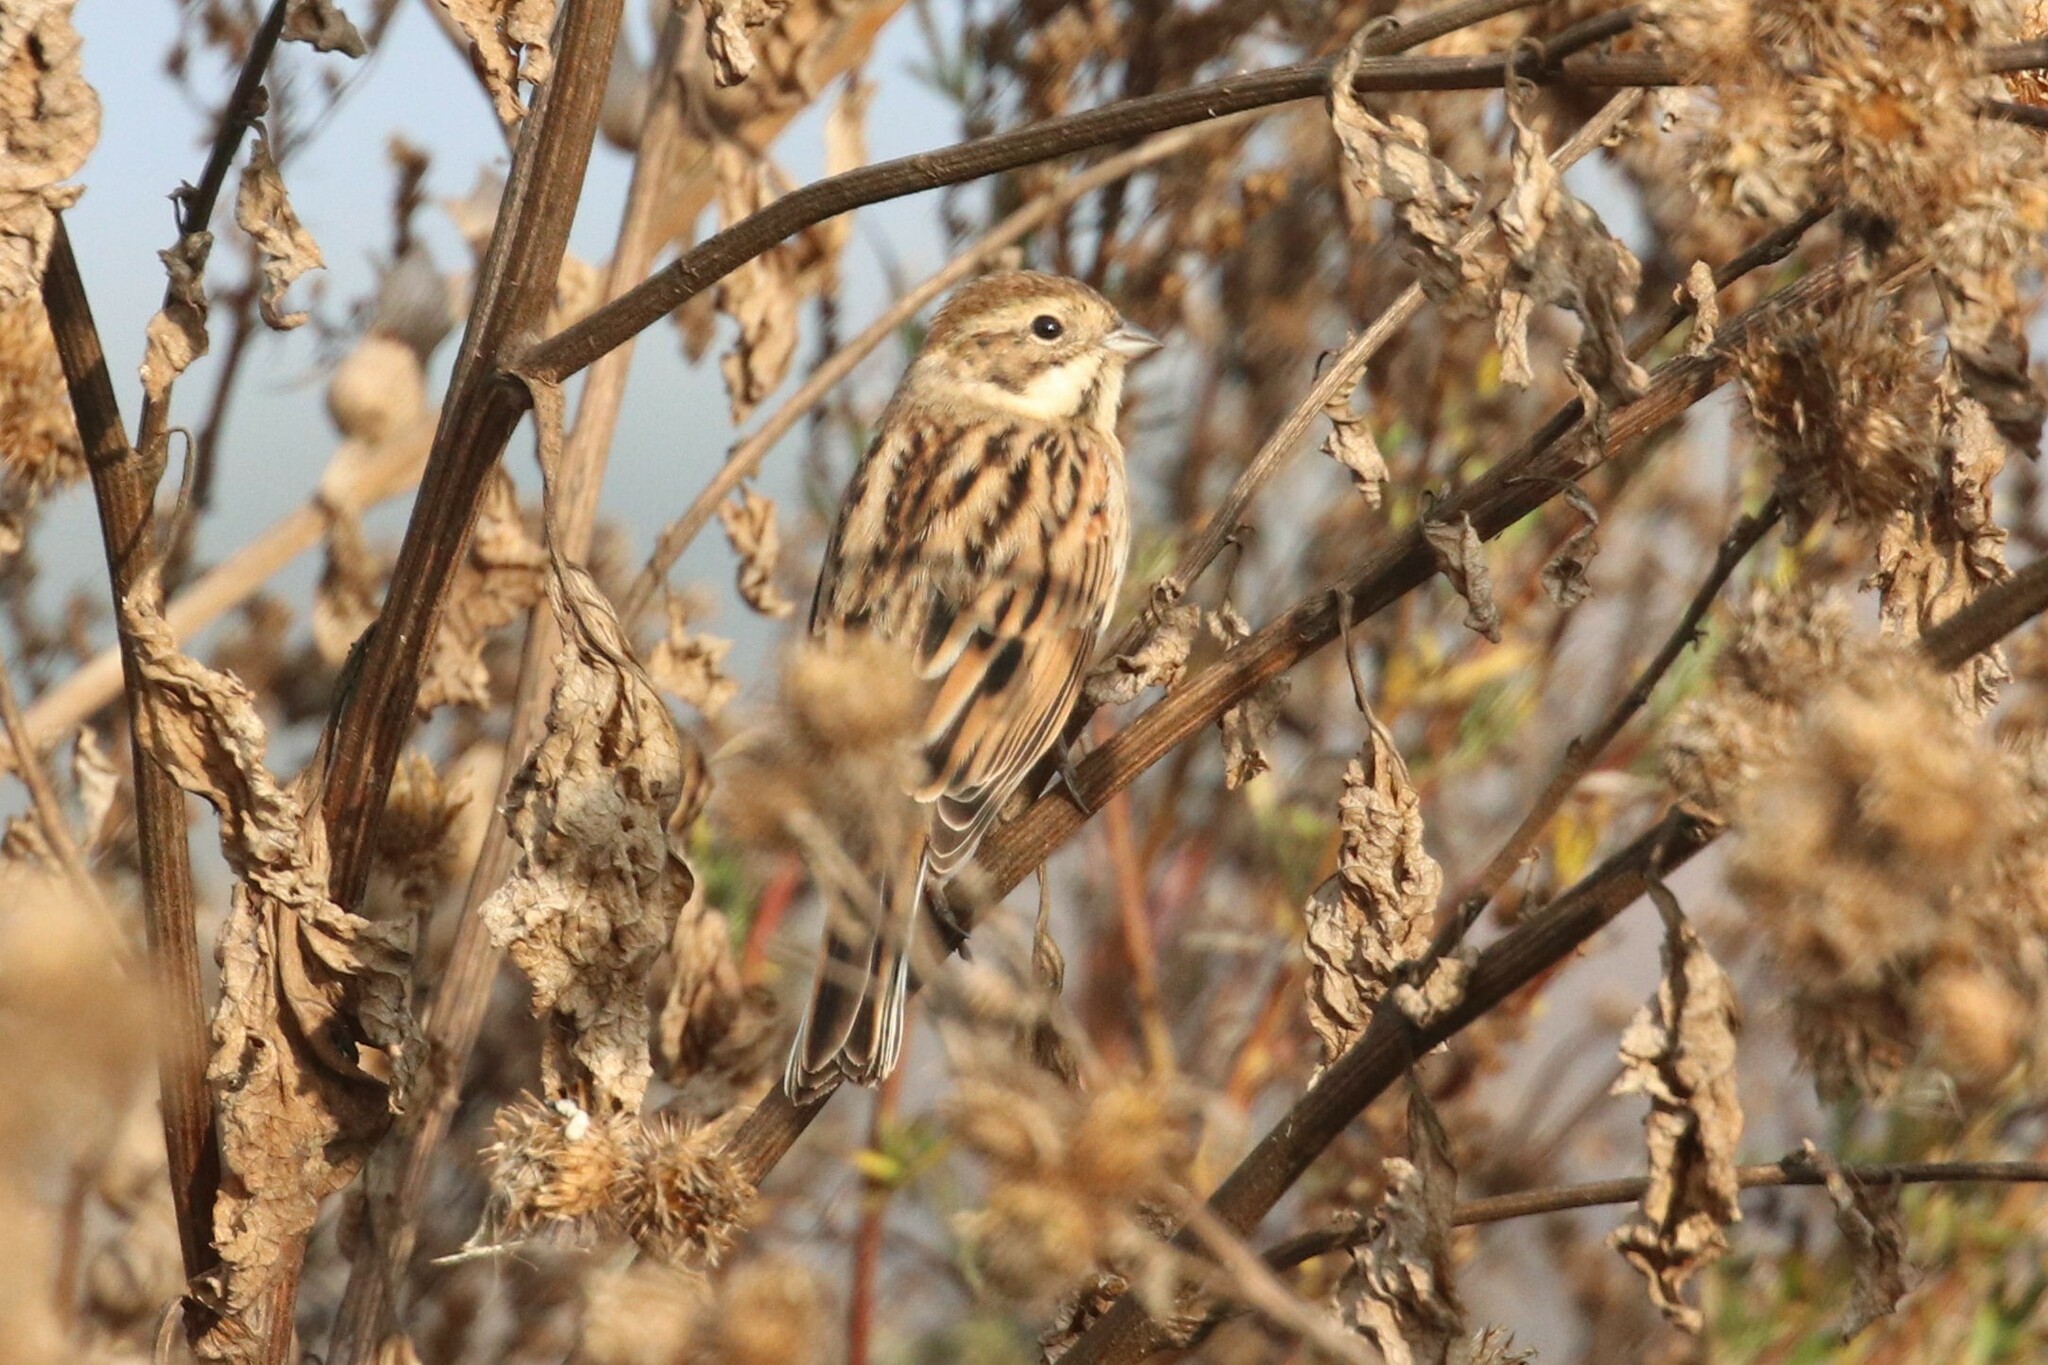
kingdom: Animalia
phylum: Chordata
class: Aves
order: Passeriformes
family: Emberizidae
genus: Emberiza
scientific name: Emberiza schoeniclus
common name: Reed bunting
